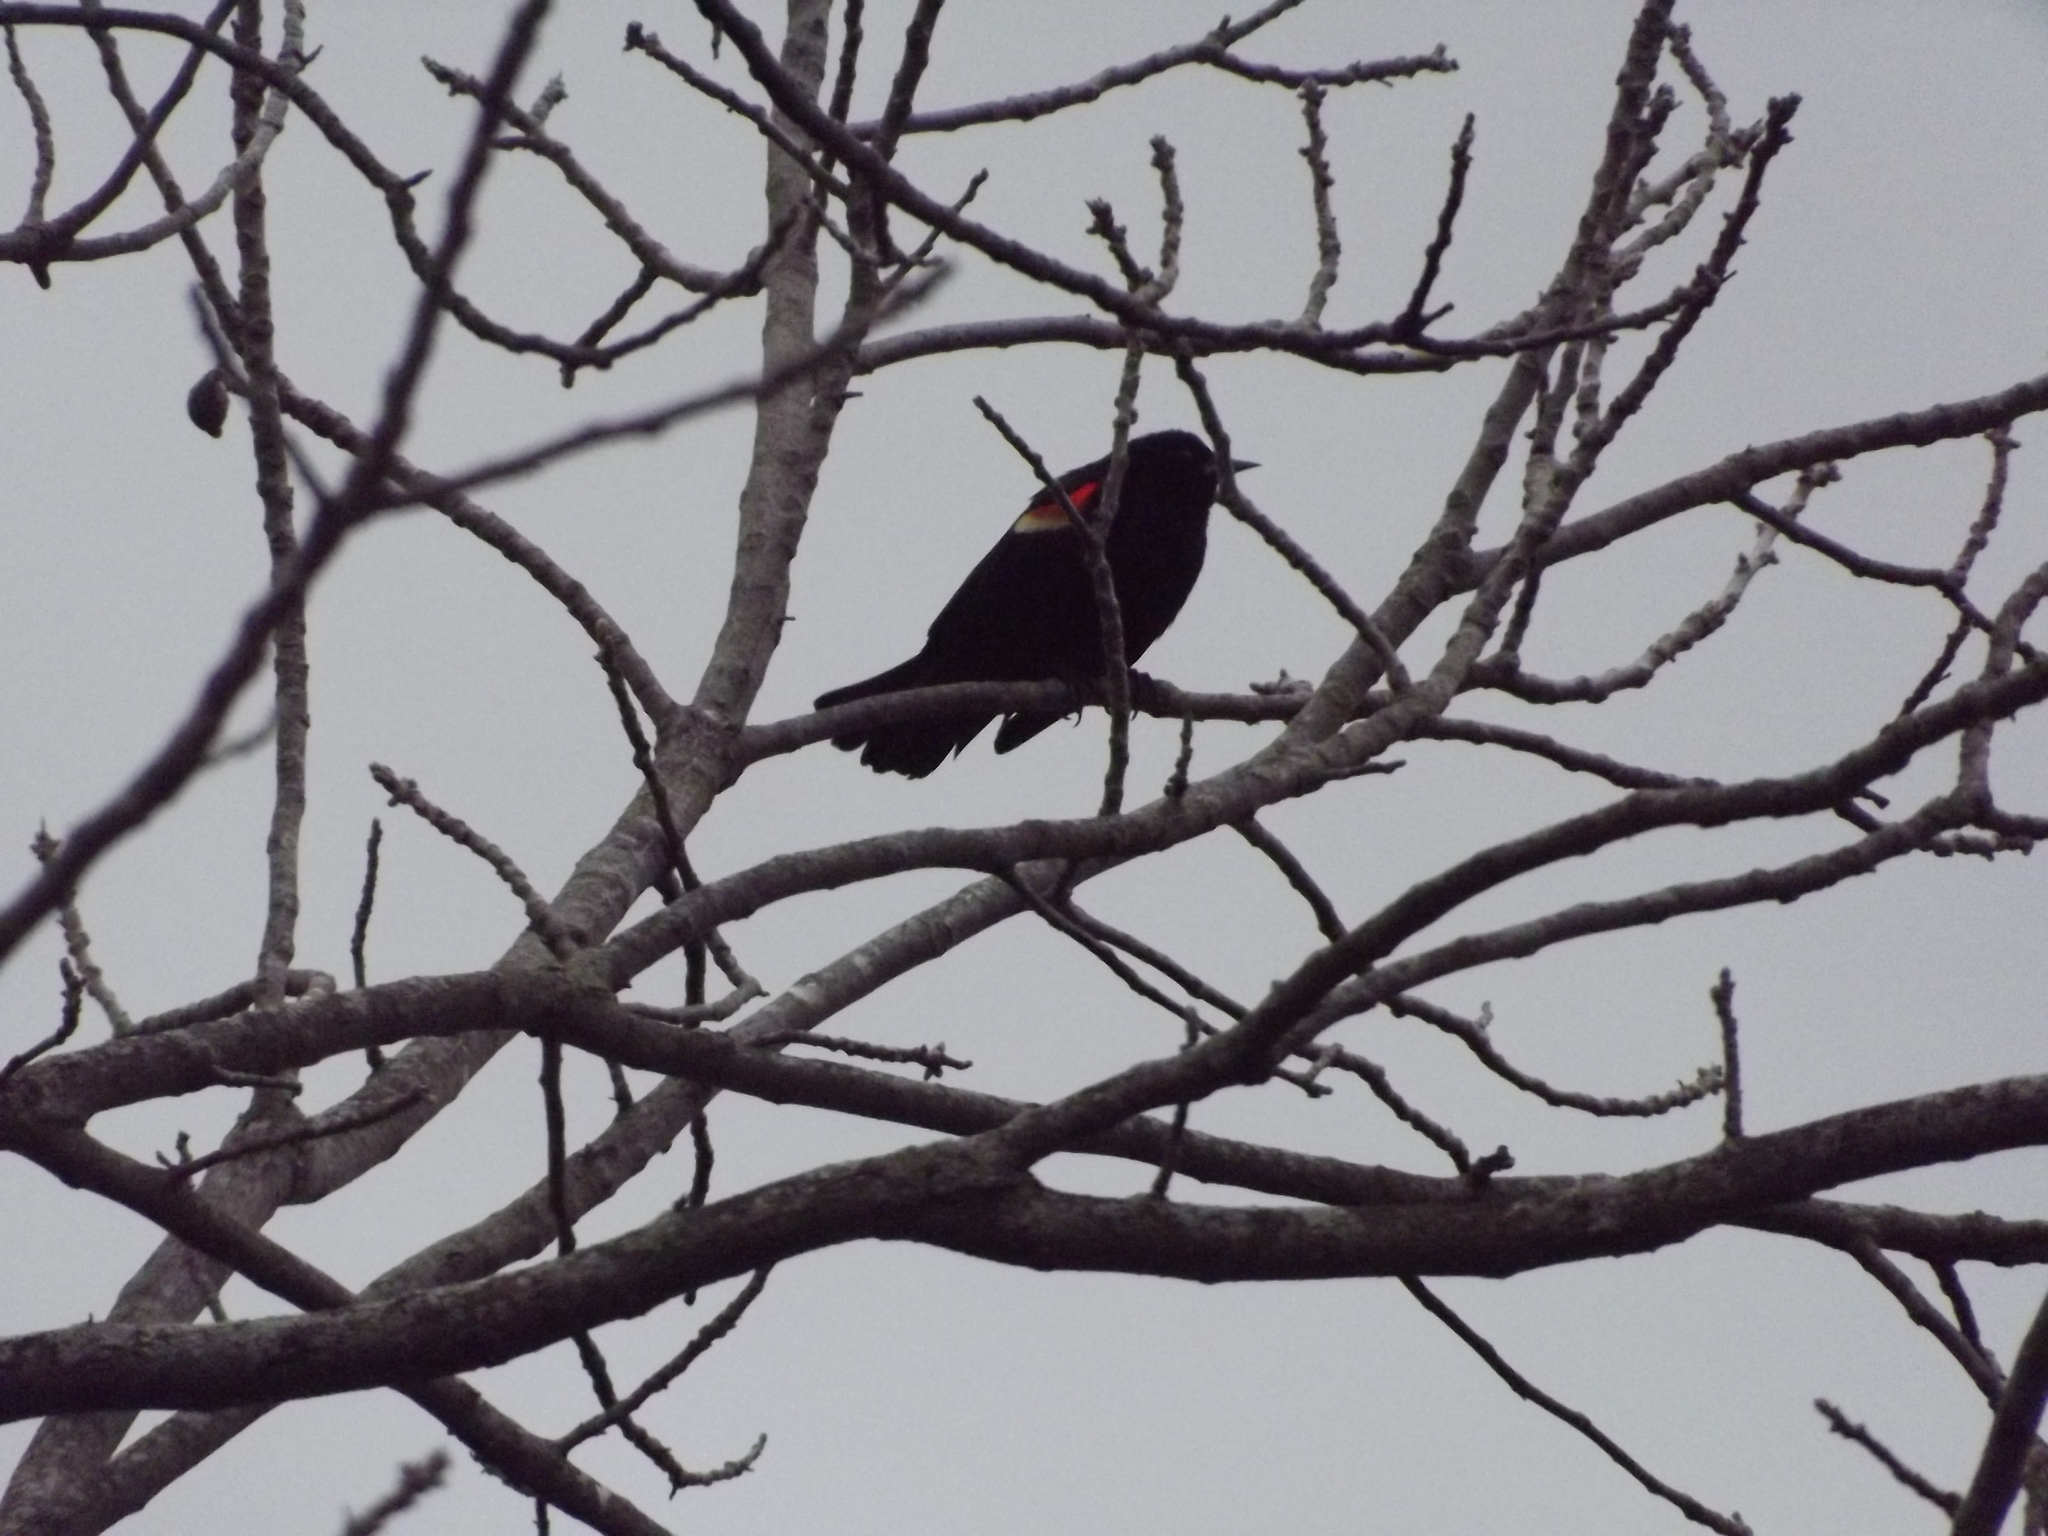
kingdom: Animalia
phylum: Chordata
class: Aves
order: Passeriformes
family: Icteridae
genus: Agelaius
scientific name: Agelaius phoeniceus
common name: Red-winged blackbird
